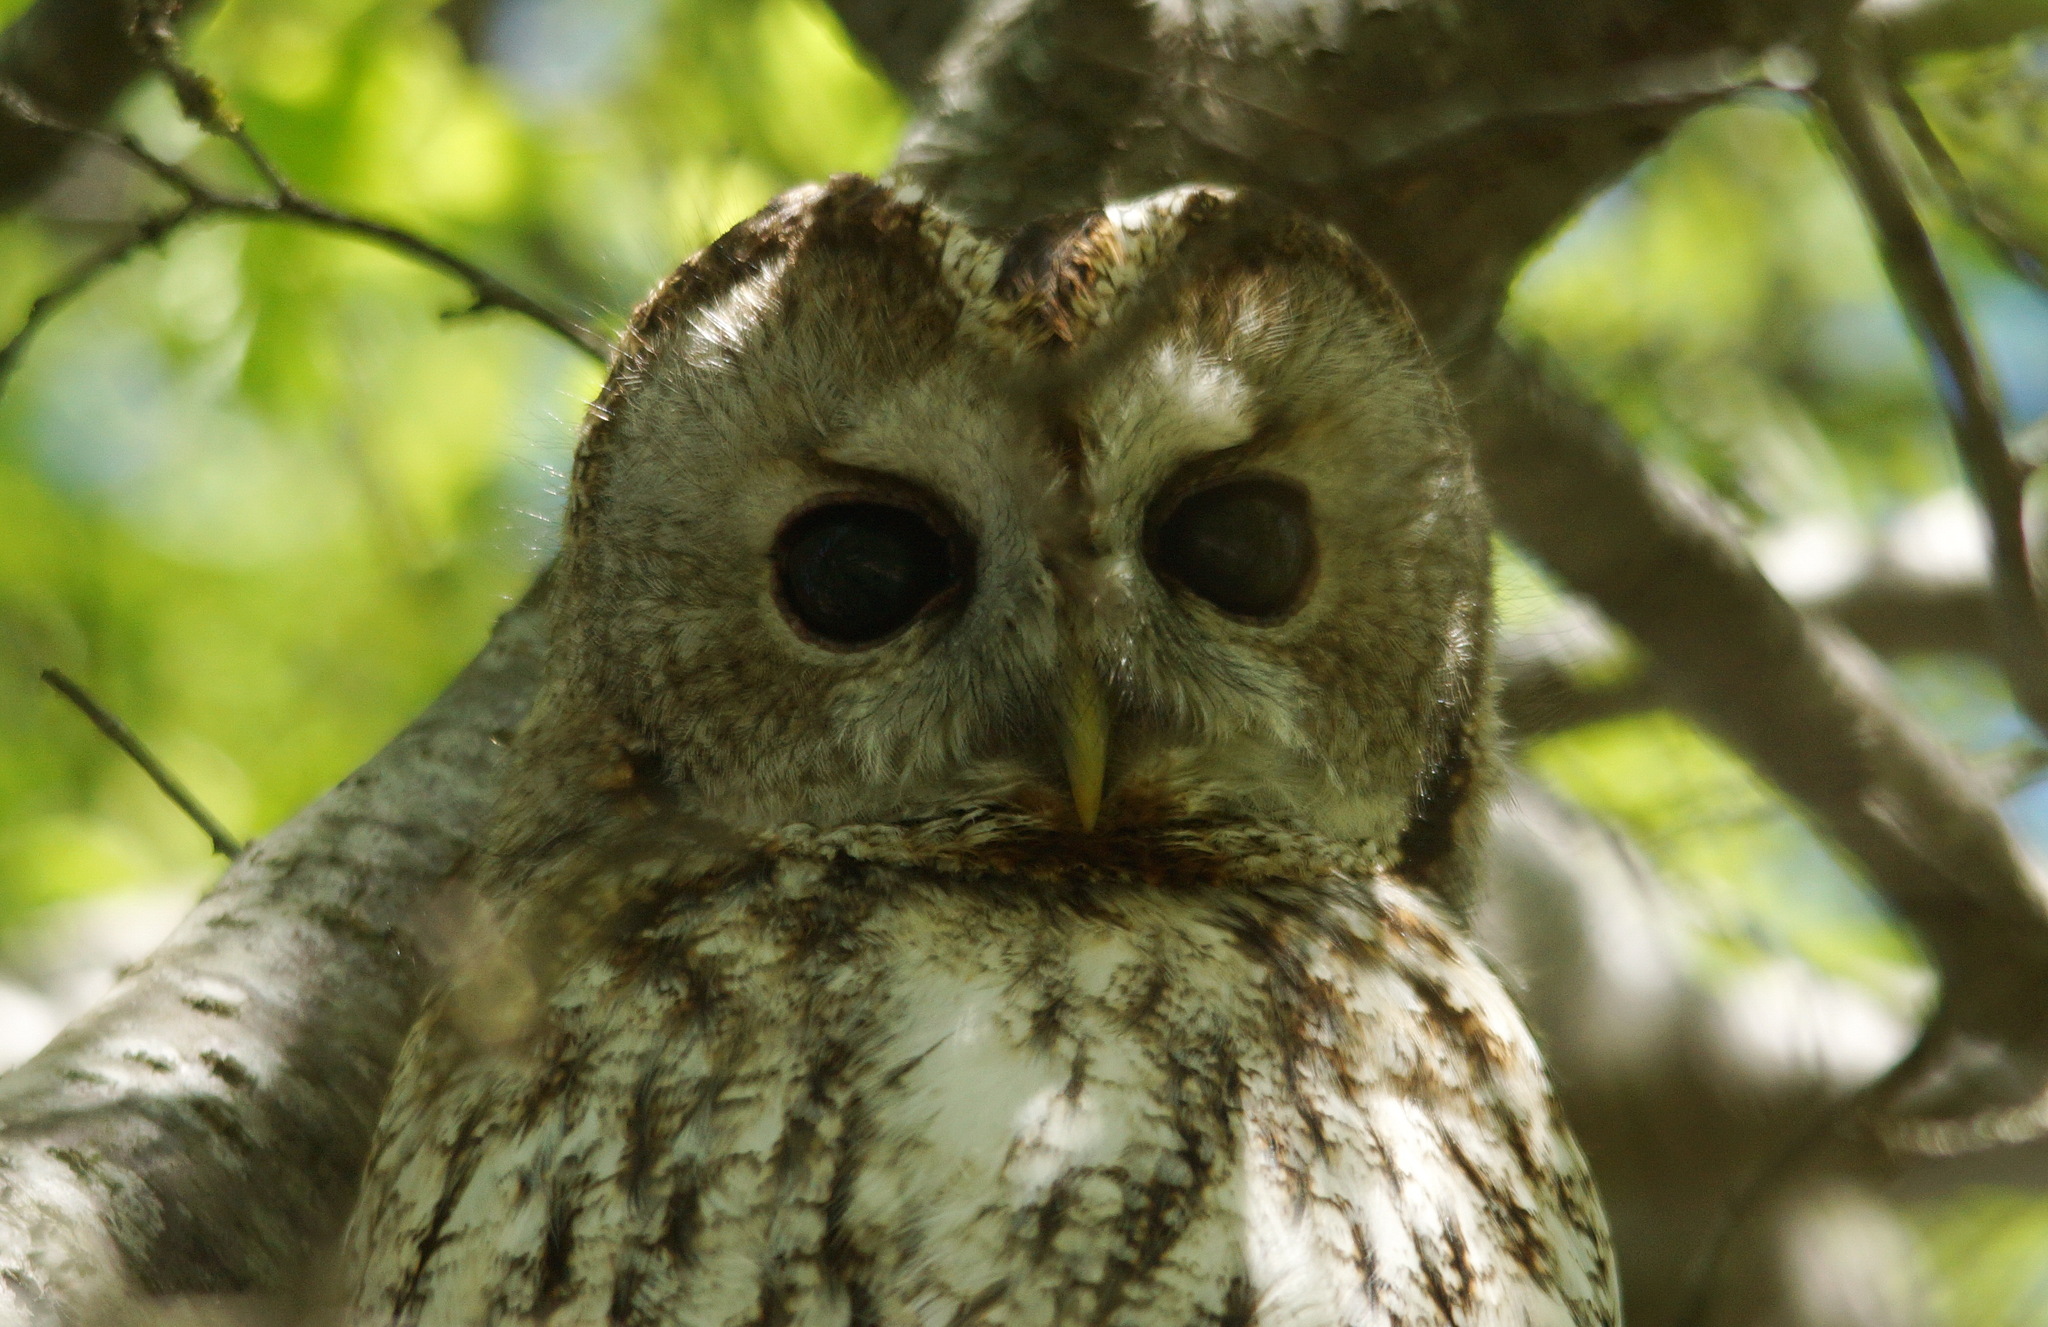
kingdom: Animalia
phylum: Chordata
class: Aves
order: Strigiformes
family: Strigidae
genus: Strix
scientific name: Strix aluco
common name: Tawny owl
